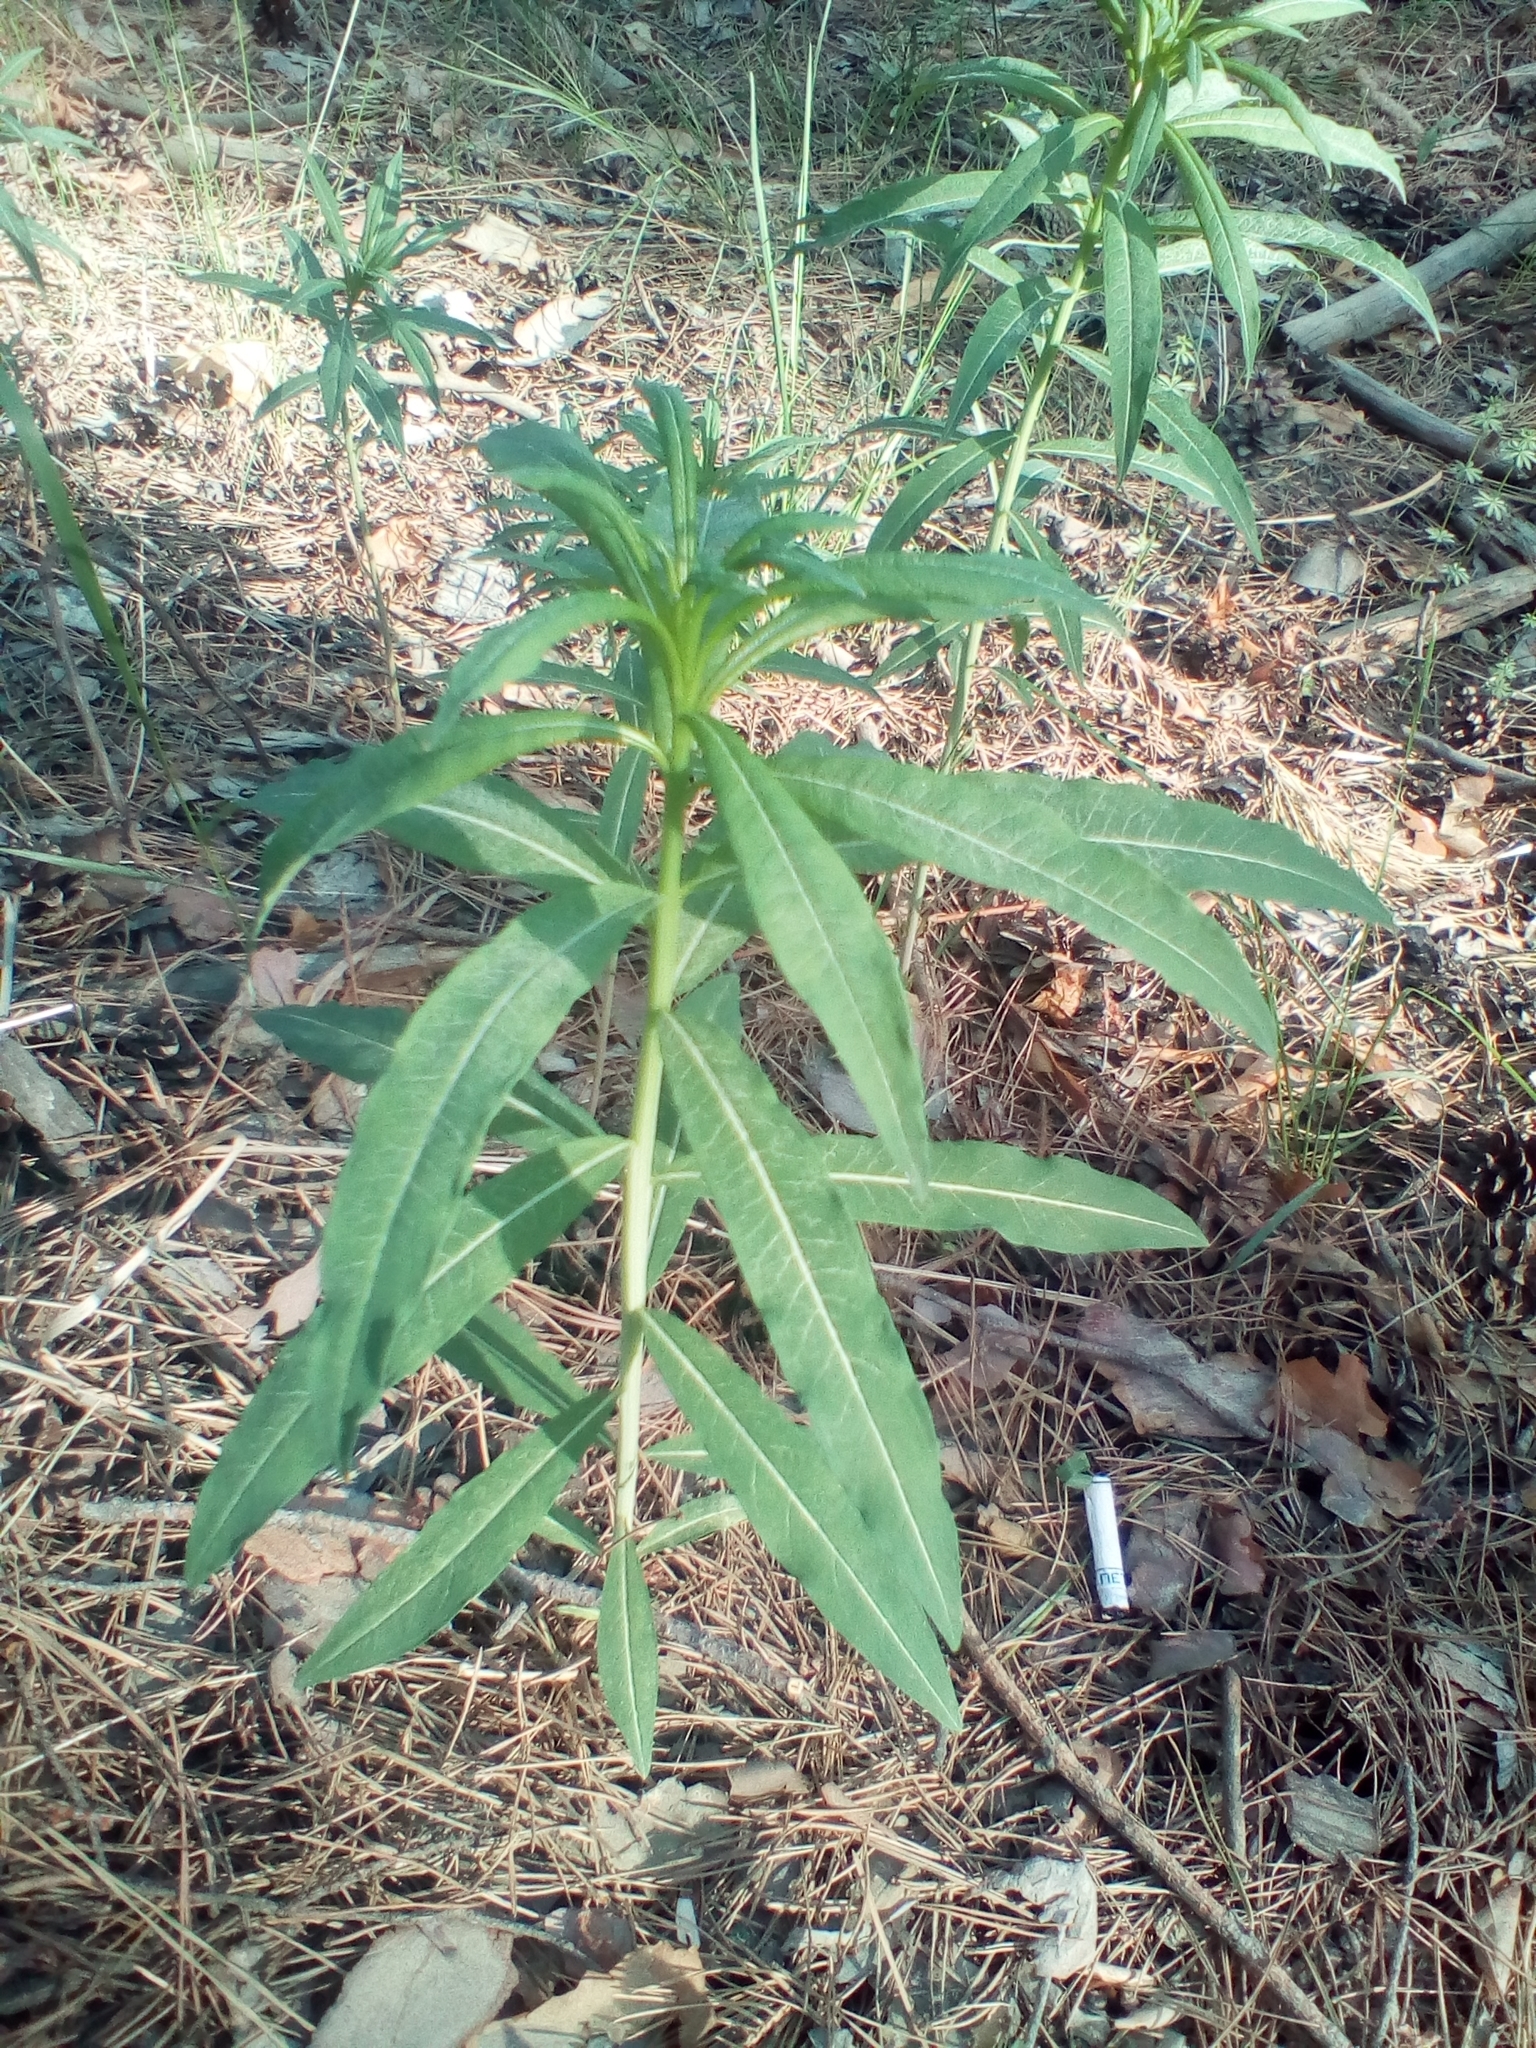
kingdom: Plantae
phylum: Tracheophyta
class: Magnoliopsida
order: Myrtales
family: Onagraceae
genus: Chamaenerion
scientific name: Chamaenerion angustifolium
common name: Fireweed
